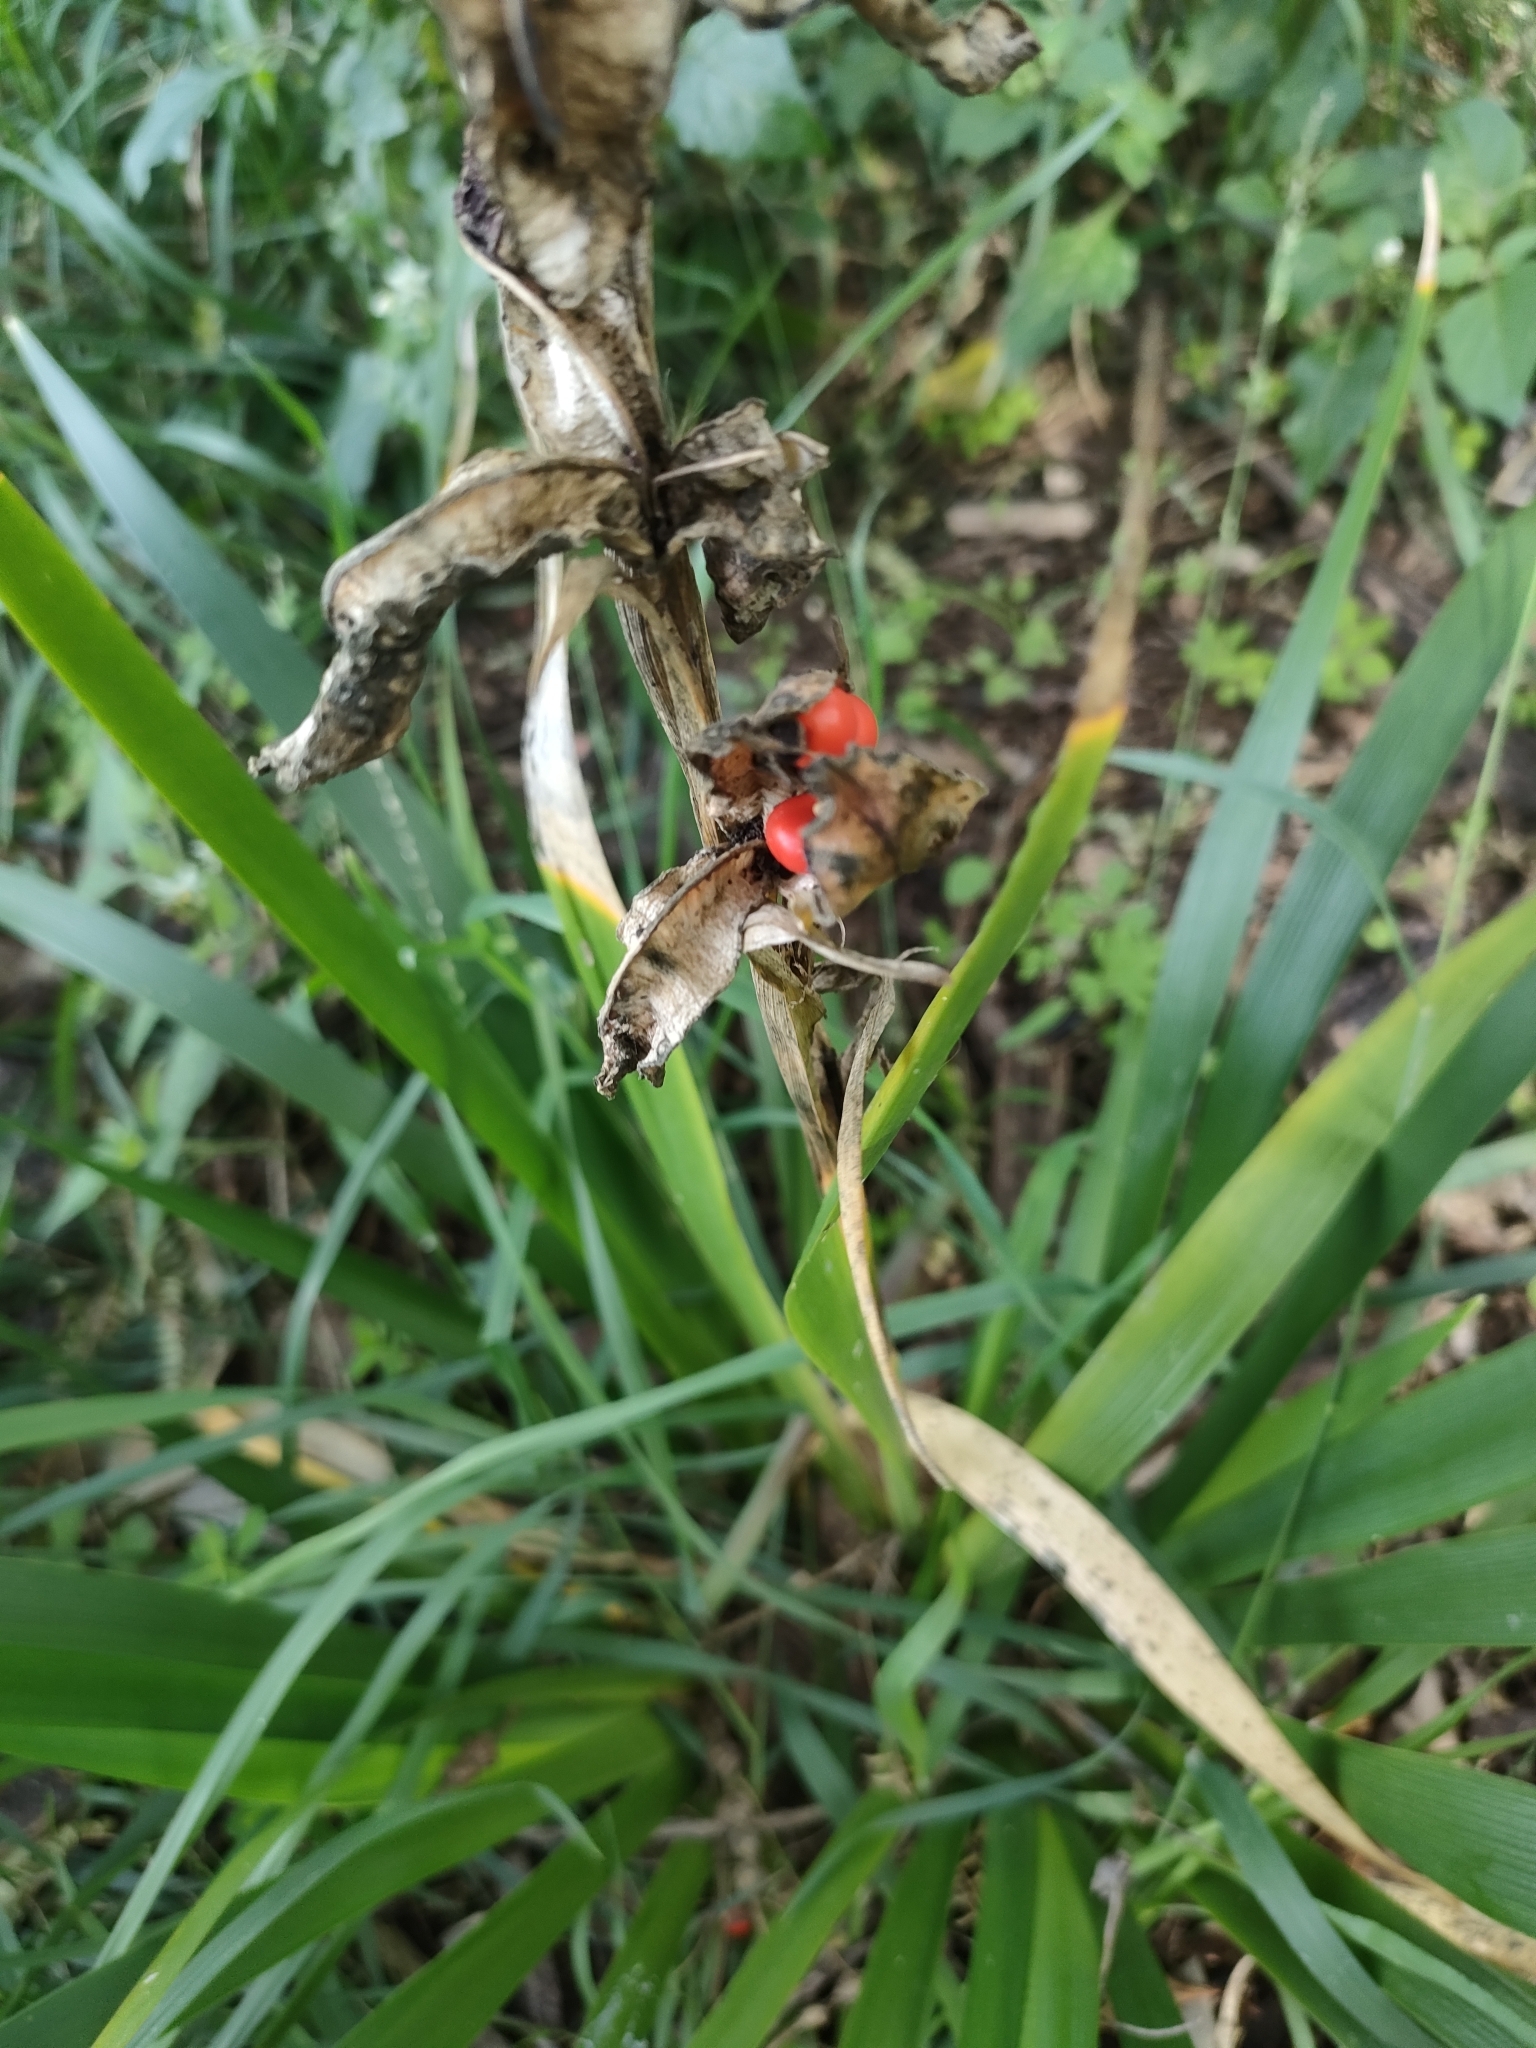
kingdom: Plantae
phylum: Tracheophyta
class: Liliopsida
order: Asparagales
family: Iridaceae
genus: Iris
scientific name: Iris foetidissima
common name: Stinking iris
